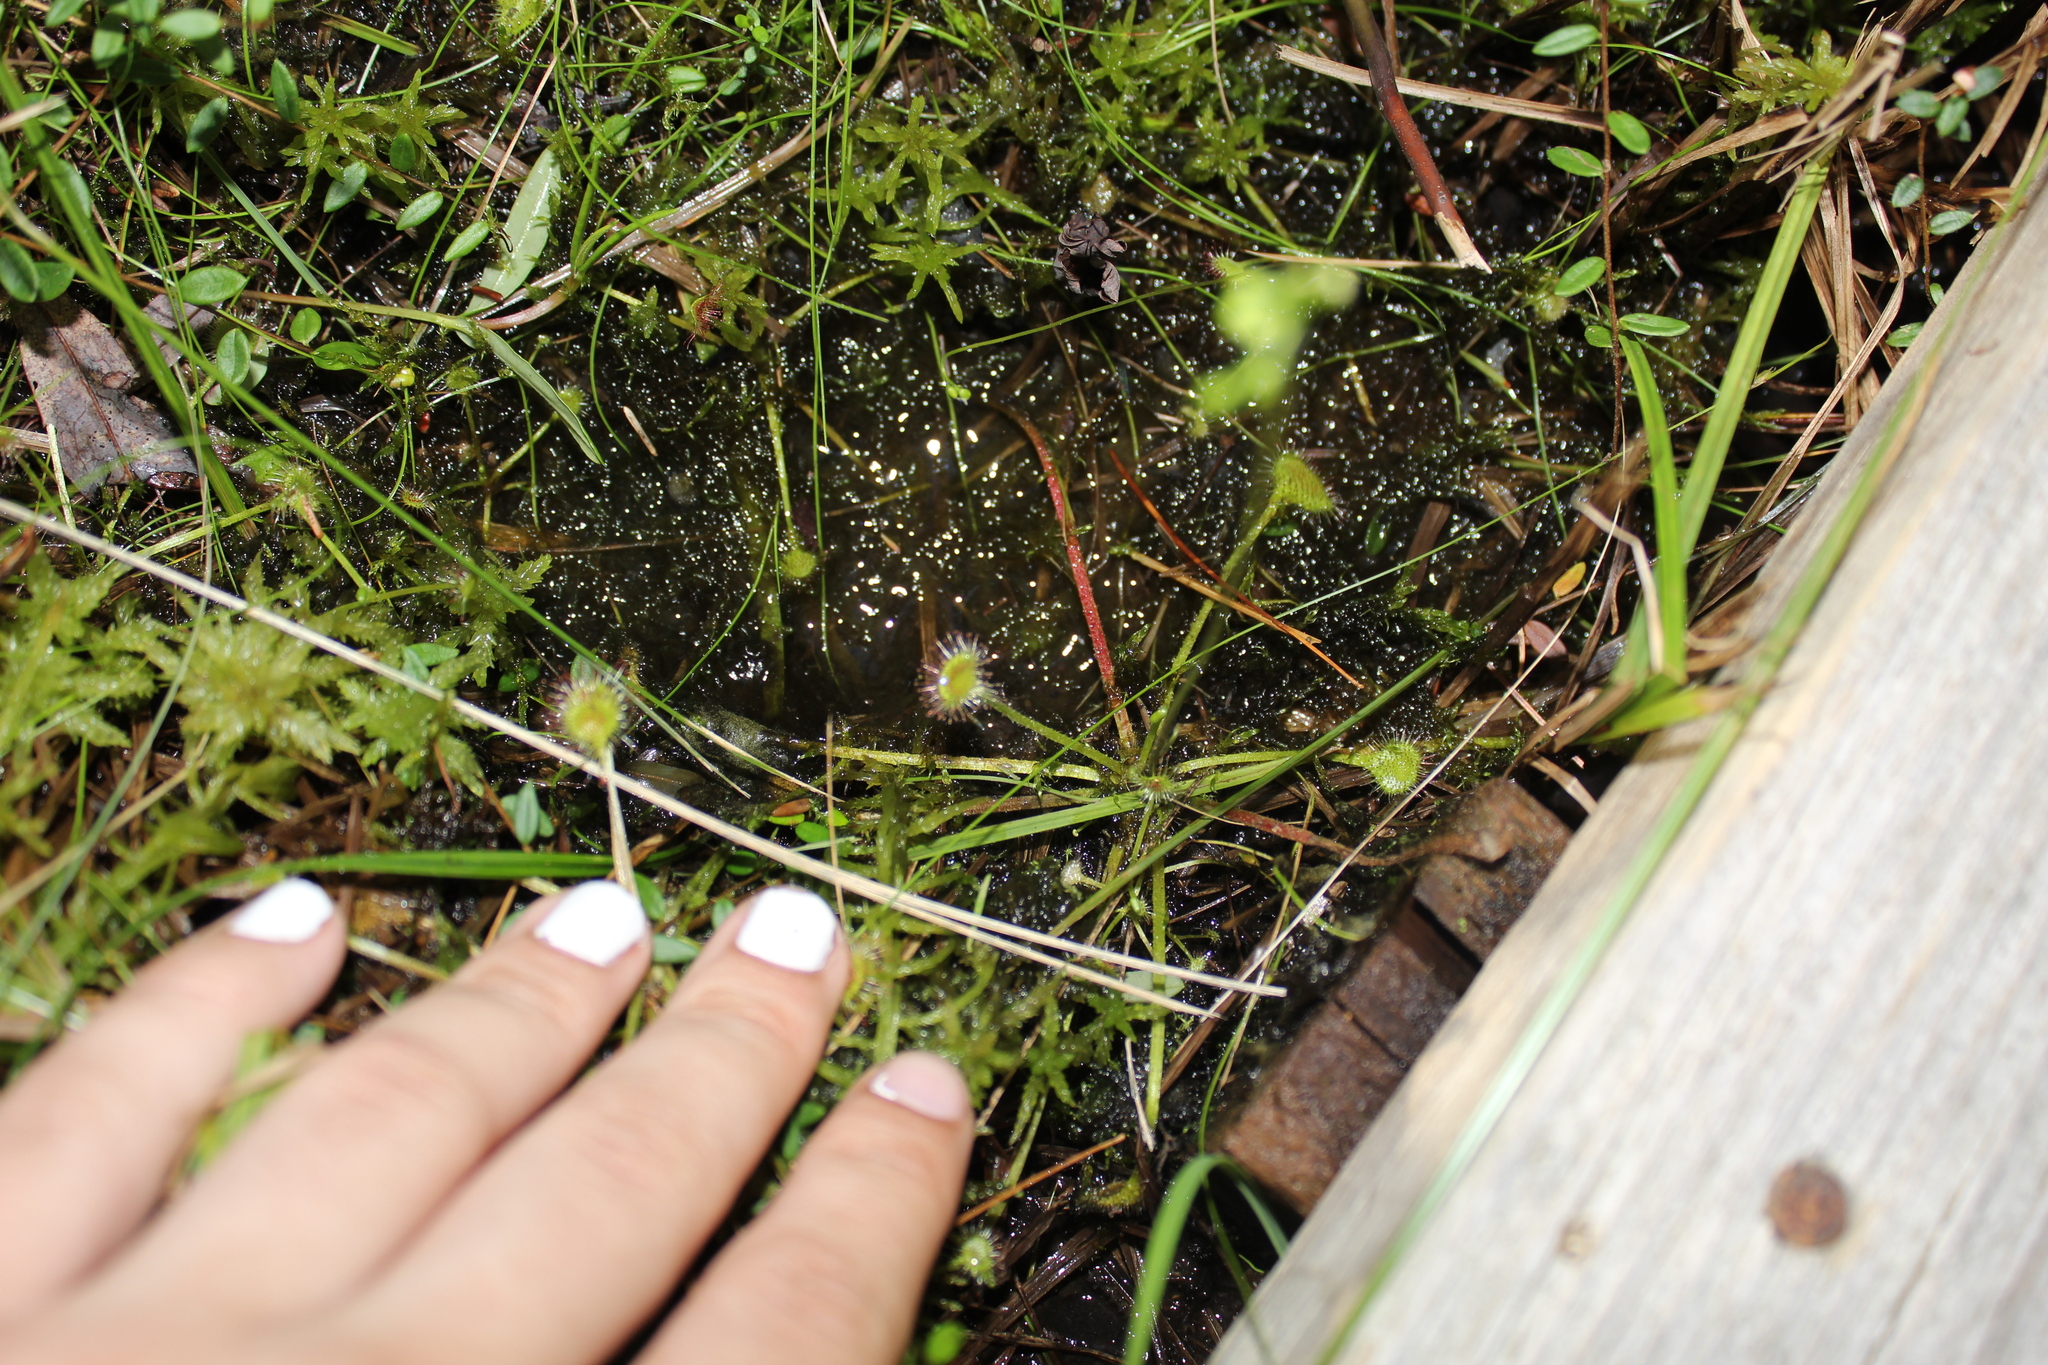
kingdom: Plantae
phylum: Tracheophyta
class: Magnoliopsida
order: Caryophyllales
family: Droseraceae
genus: Drosera
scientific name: Drosera rotundifolia
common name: Round-leaved sundew
